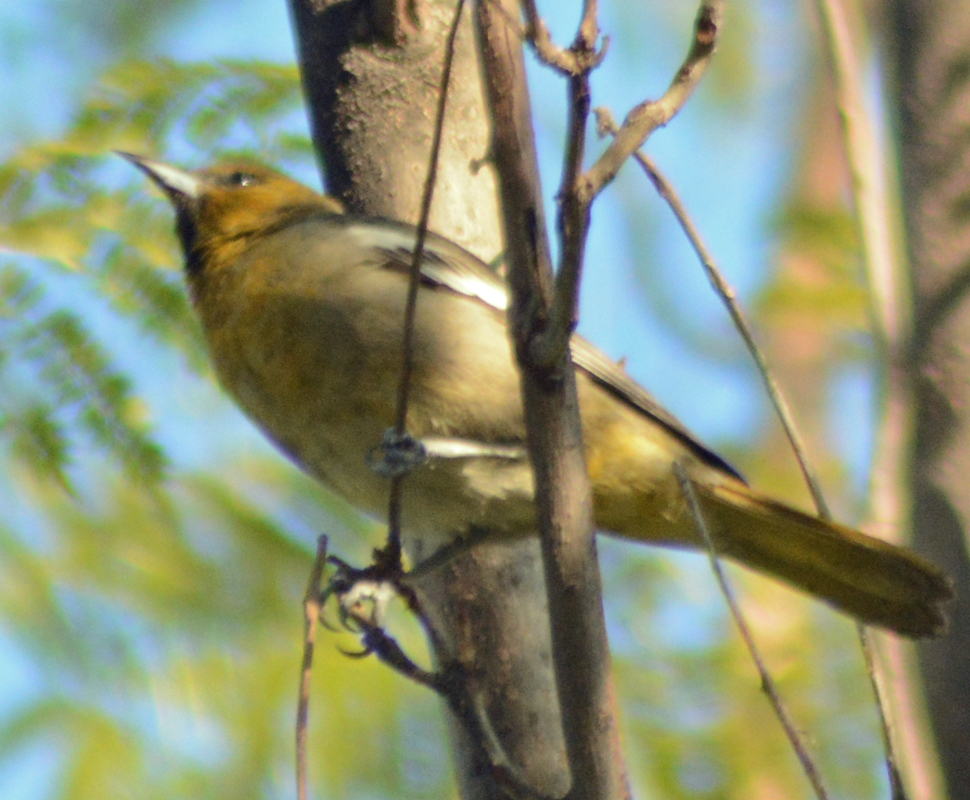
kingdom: Animalia
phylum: Chordata
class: Aves
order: Passeriformes
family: Icteridae
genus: Icterus
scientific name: Icterus cucullatus
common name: Hooded oriole
